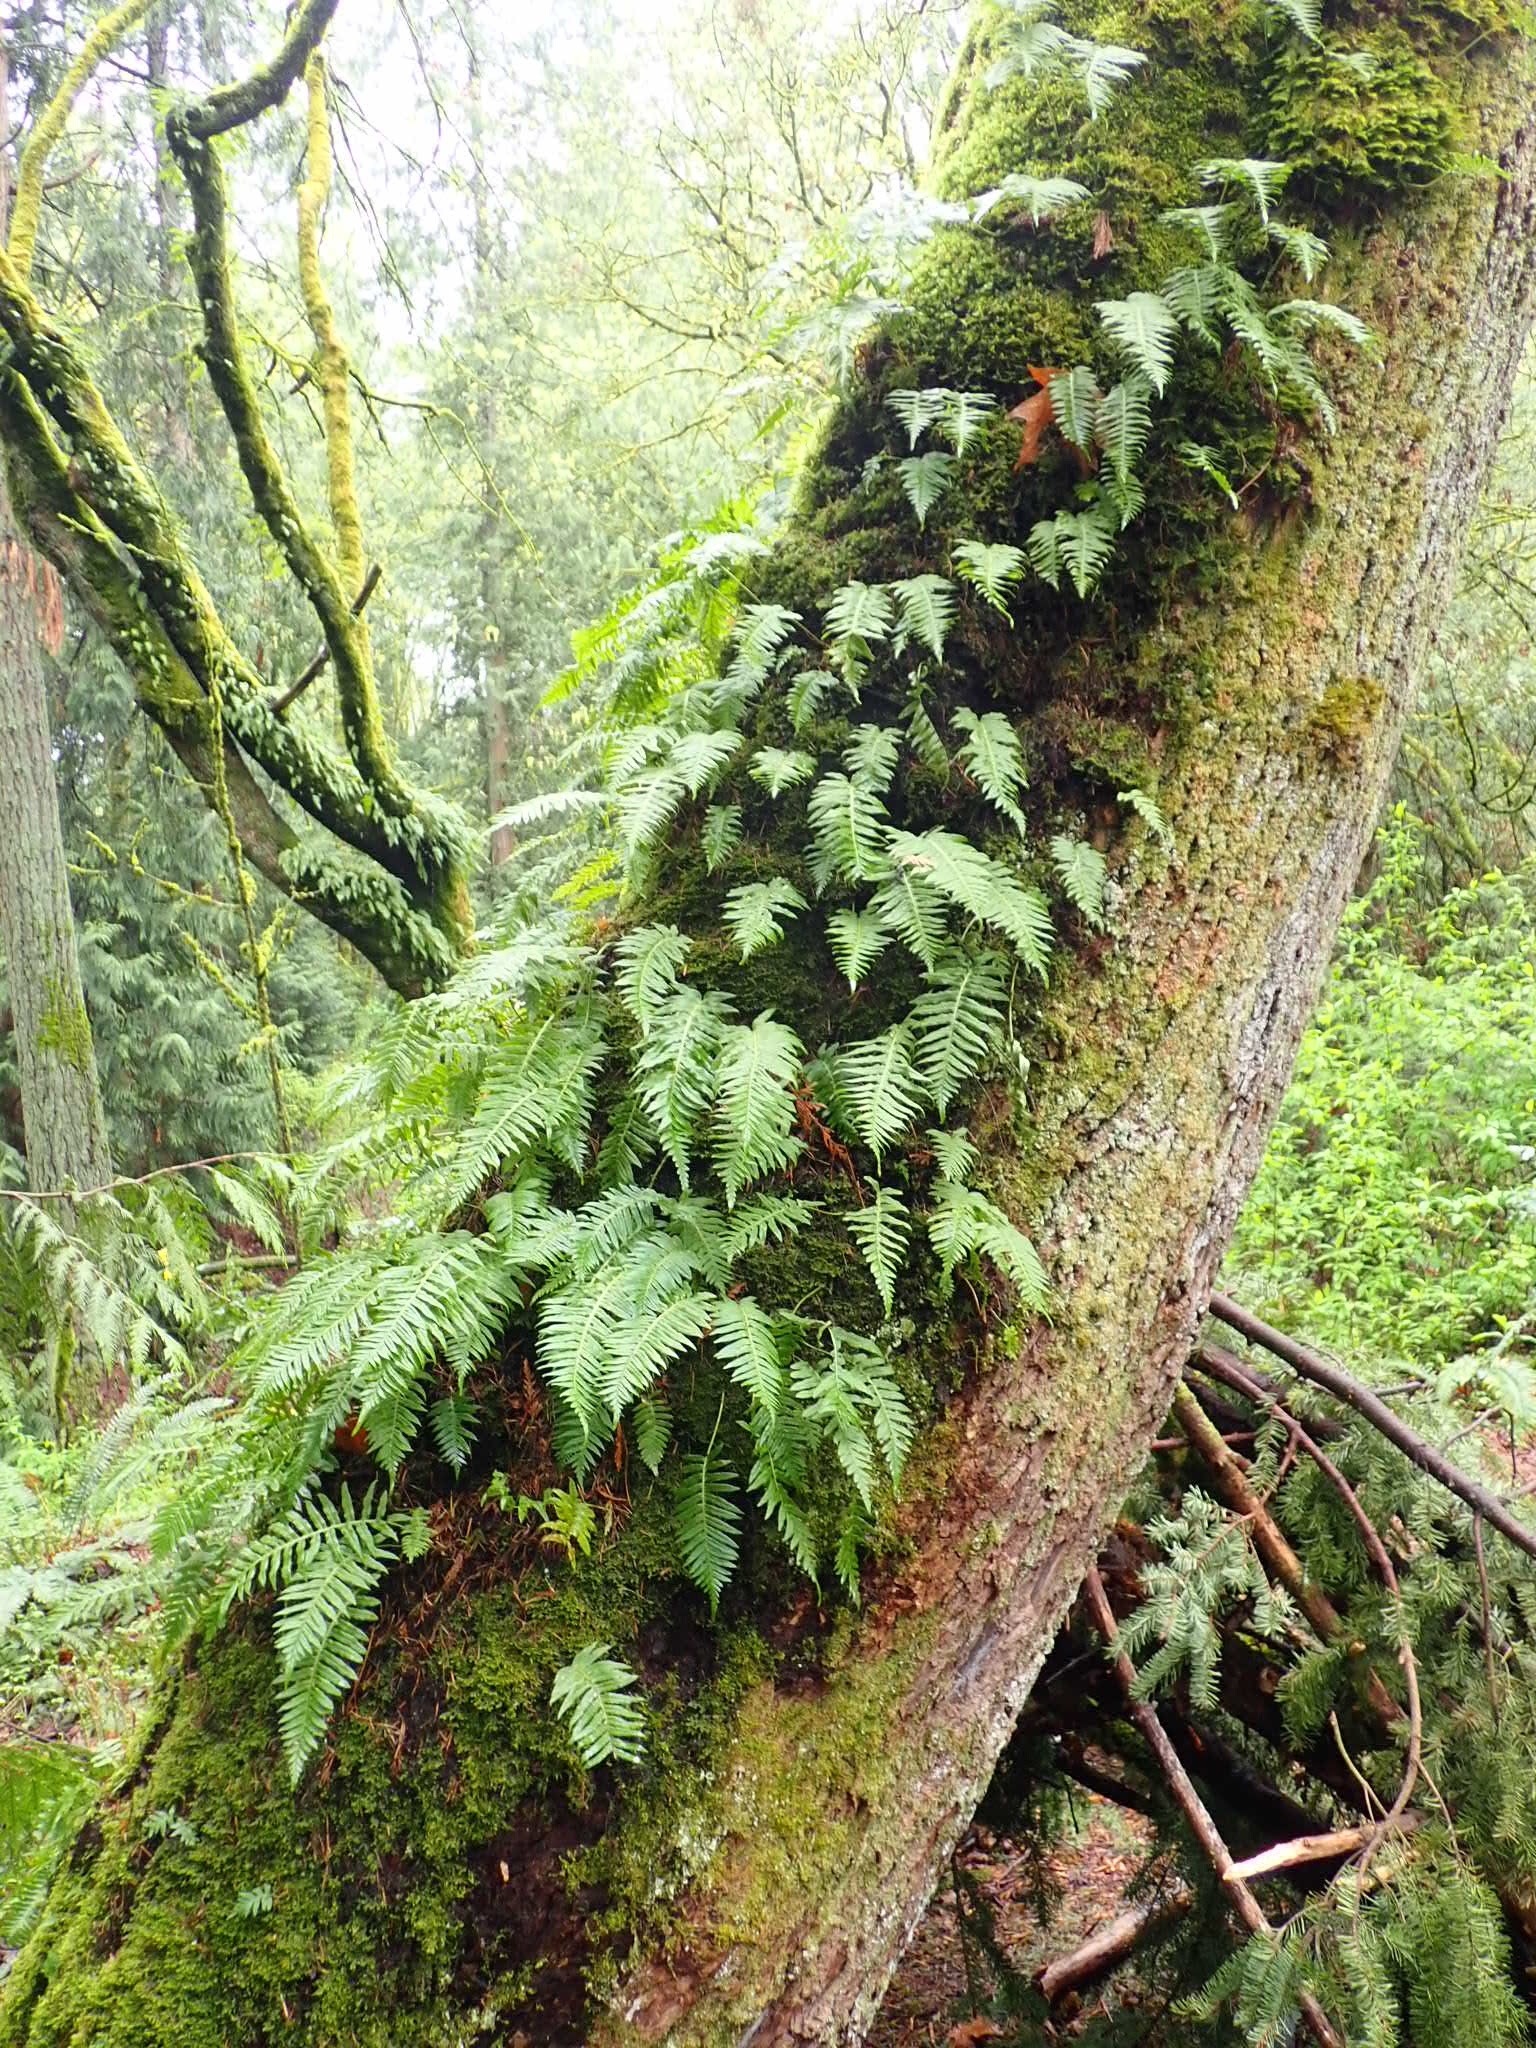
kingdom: Plantae
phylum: Tracheophyta
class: Polypodiopsida
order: Polypodiales
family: Polypodiaceae
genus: Polypodium
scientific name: Polypodium glycyrrhiza
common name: Licorice fern
